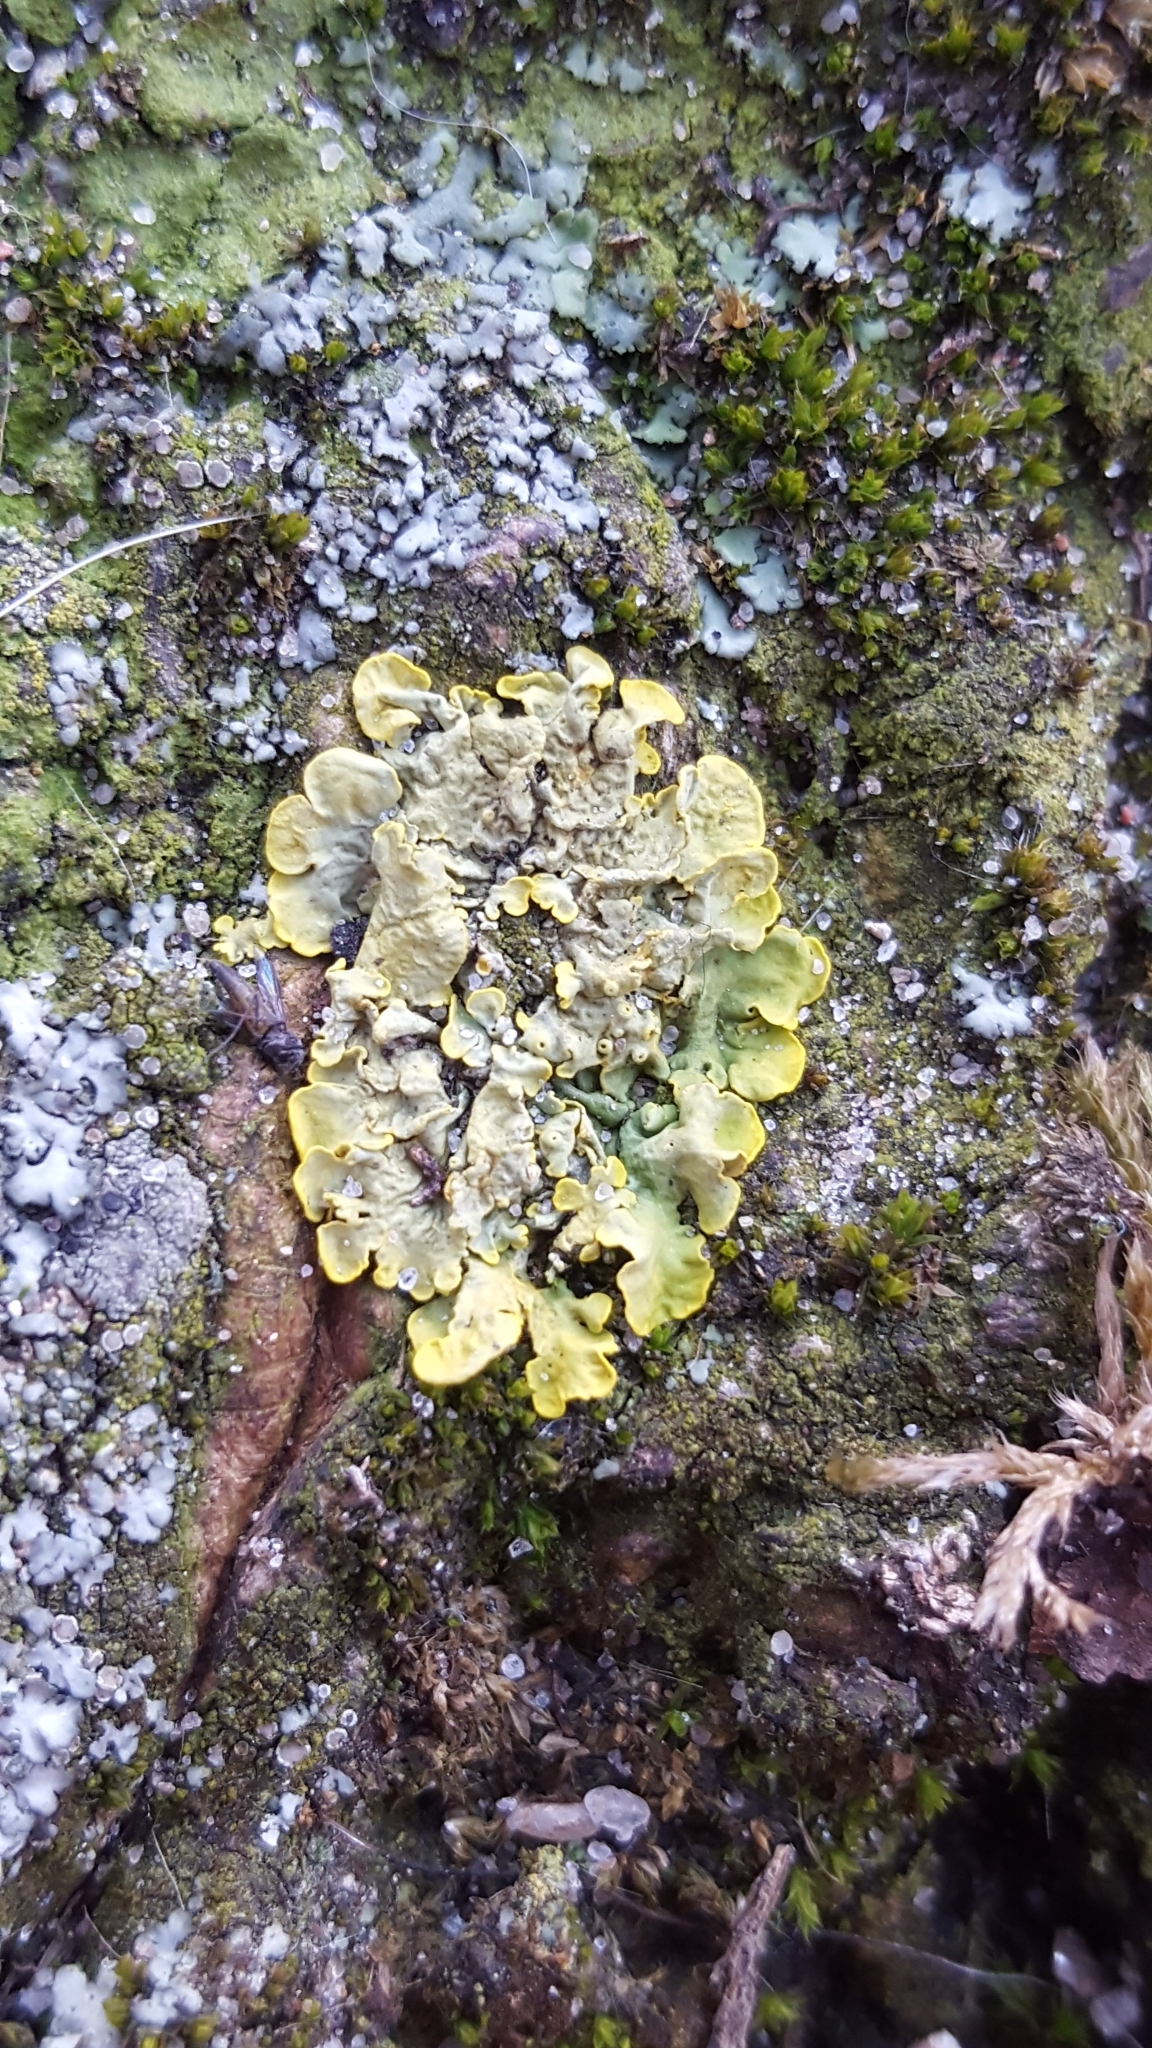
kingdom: Fungi
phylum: Ascomycota
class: Lecanoromycetes
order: Teloschistales
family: Teloschistaceae
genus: Xanthoria
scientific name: Xanthoria parietina
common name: Common orange lichen
